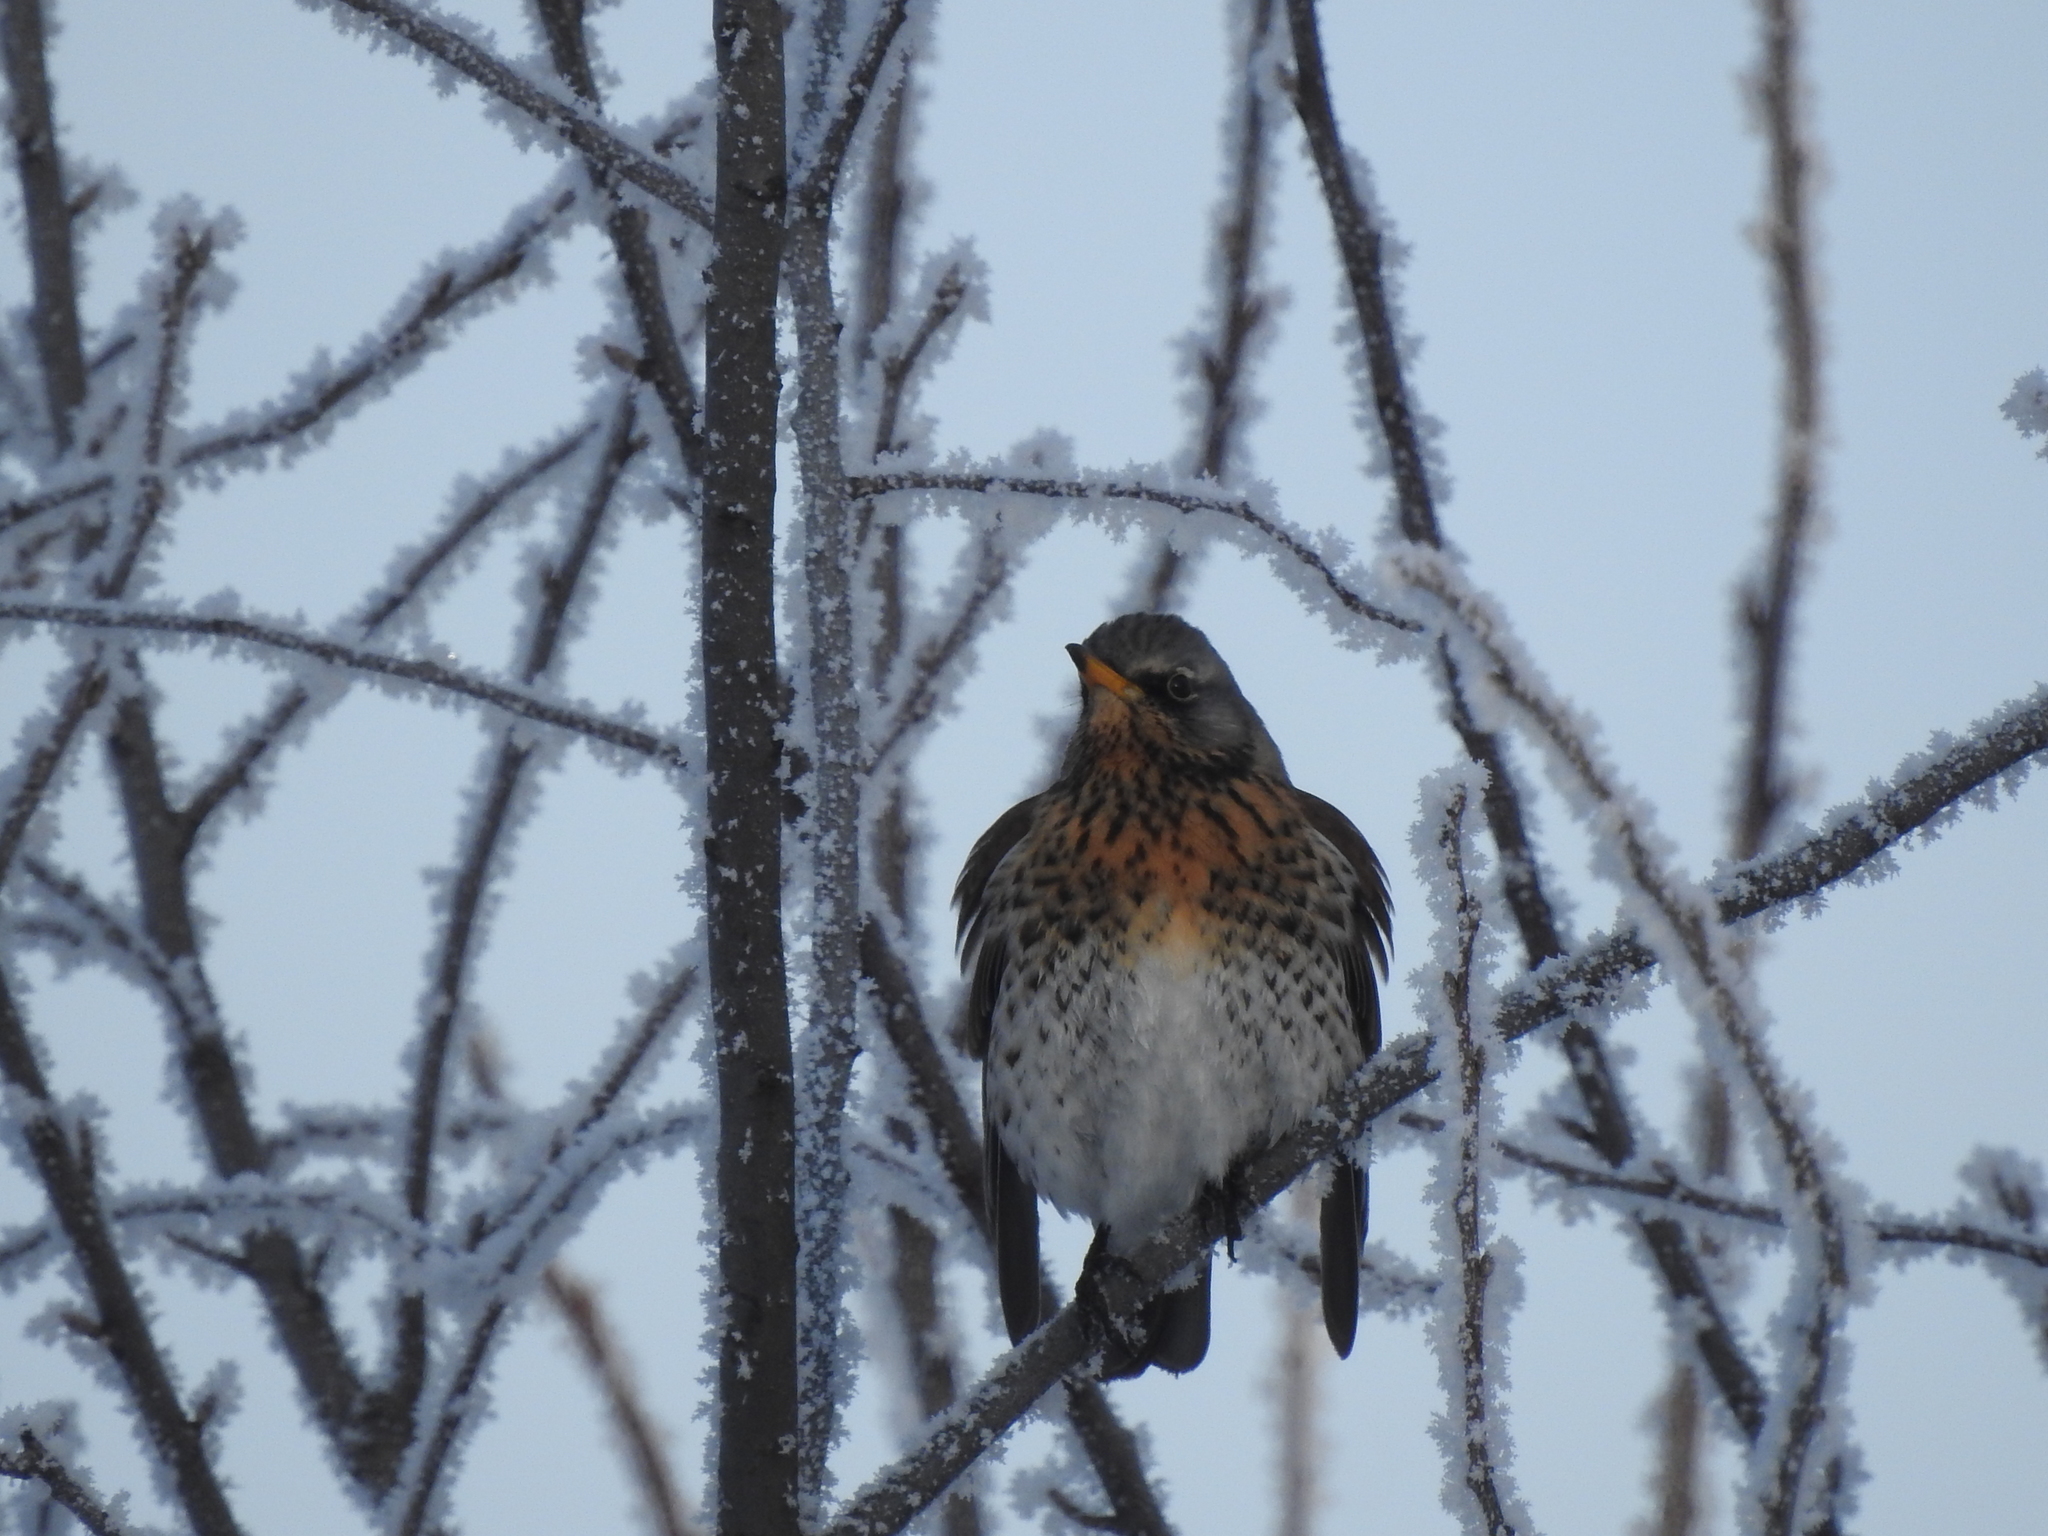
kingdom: Animalia
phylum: Chordata
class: Aves
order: Passeriformes
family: Turdidae
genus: Turdus
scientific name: Turdus pilaris
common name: Fieldfare
